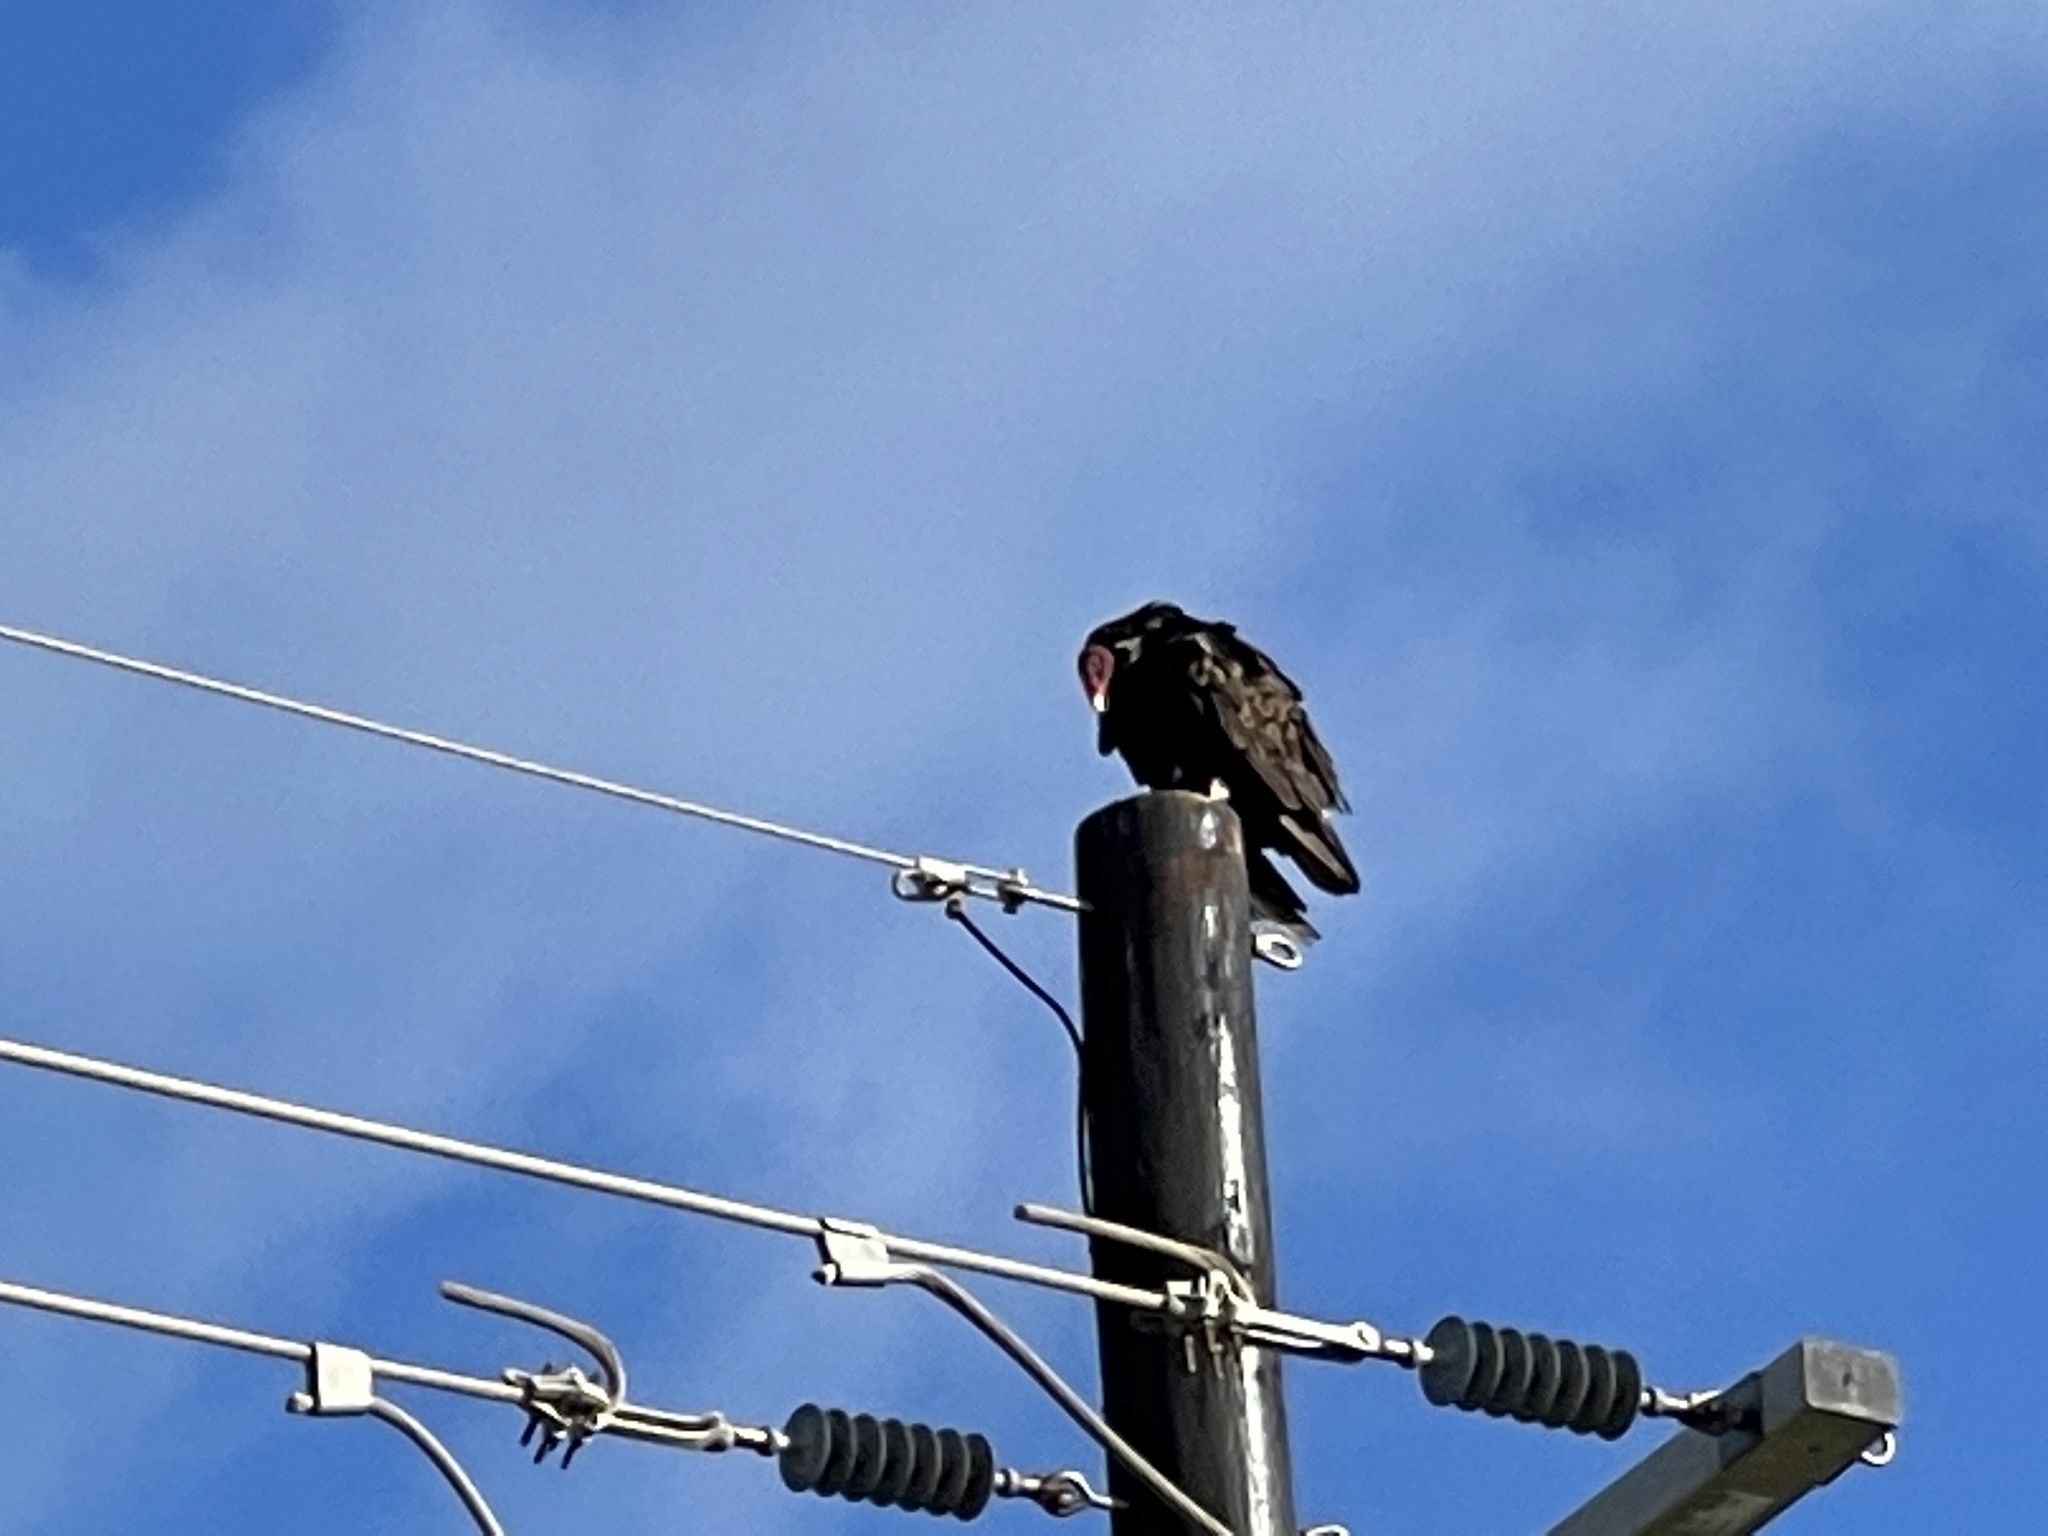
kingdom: Animalia
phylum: Chordata
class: Aves
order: Accipitriformes
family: Cathartidae
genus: Cathartes
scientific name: Cathartes aura
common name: Turkey vulture
